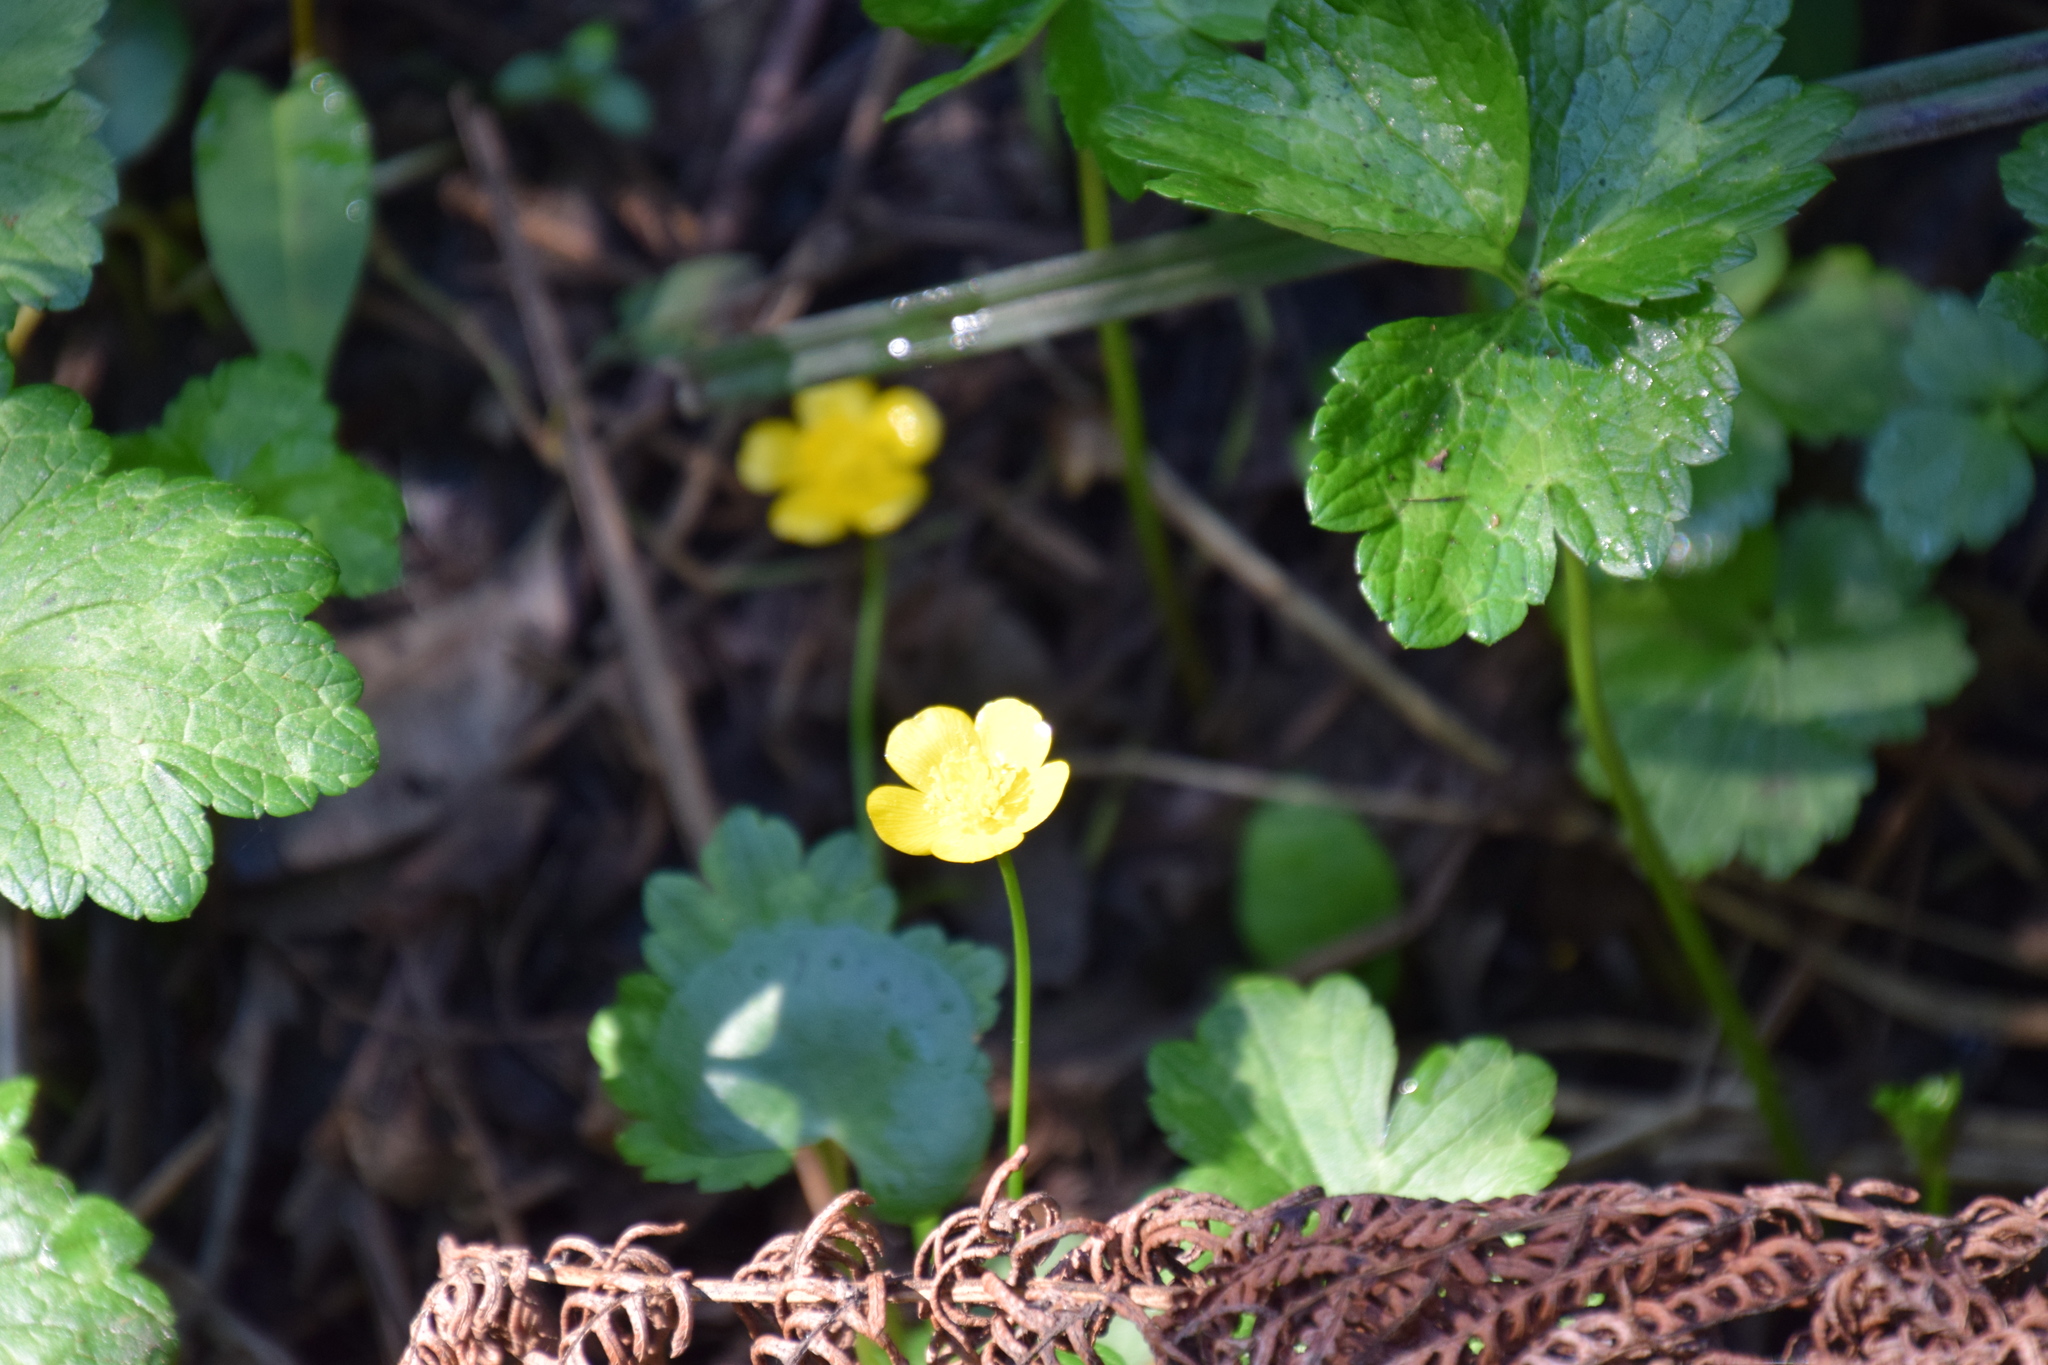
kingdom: Plantae
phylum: Tracheophyta
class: Magnoliopsida
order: Ranunculales
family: Ranunculaceae
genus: Ranunculus
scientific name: Ranunculus repens
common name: Creeping buttercup
